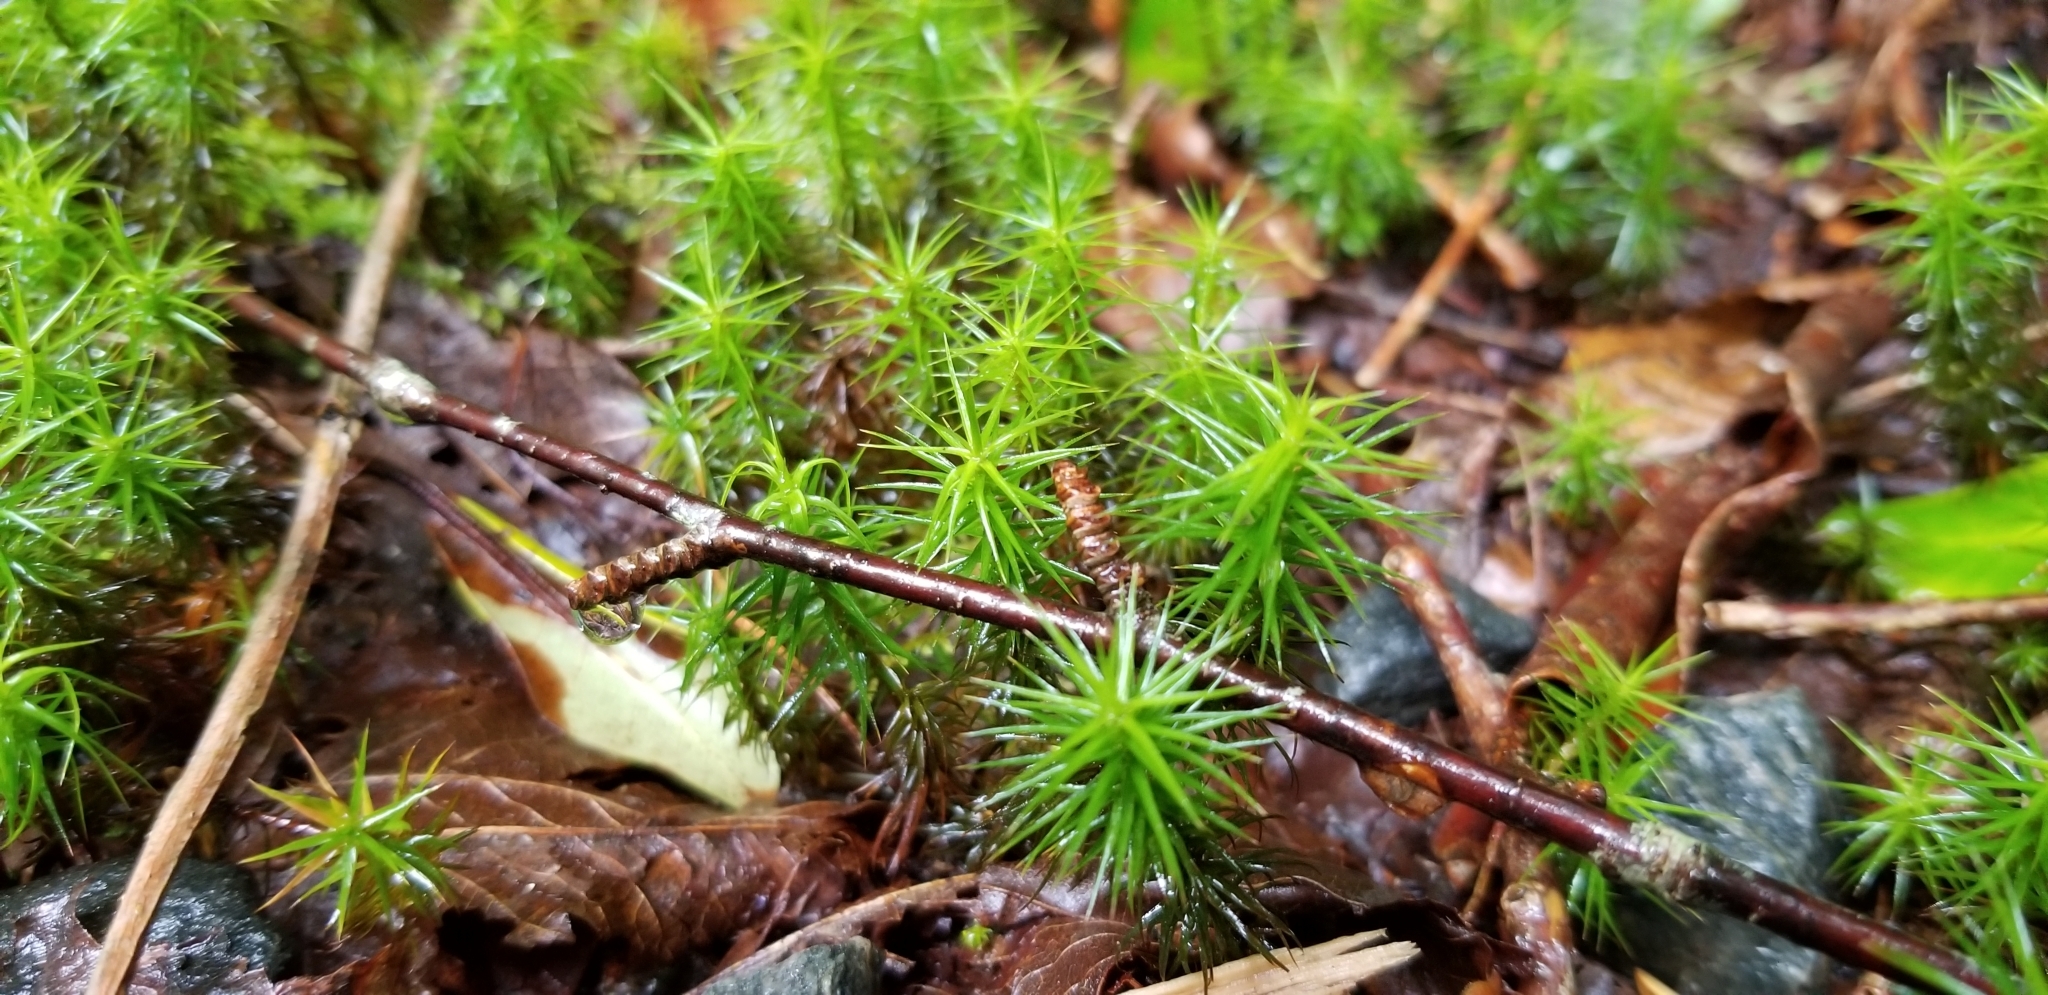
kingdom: Plantae
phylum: Bryophyta
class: Polytrichopsida
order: Polytrichales
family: Polytrichaceae
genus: Polytrichum
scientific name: Polytrichum commune
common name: Common haircap
